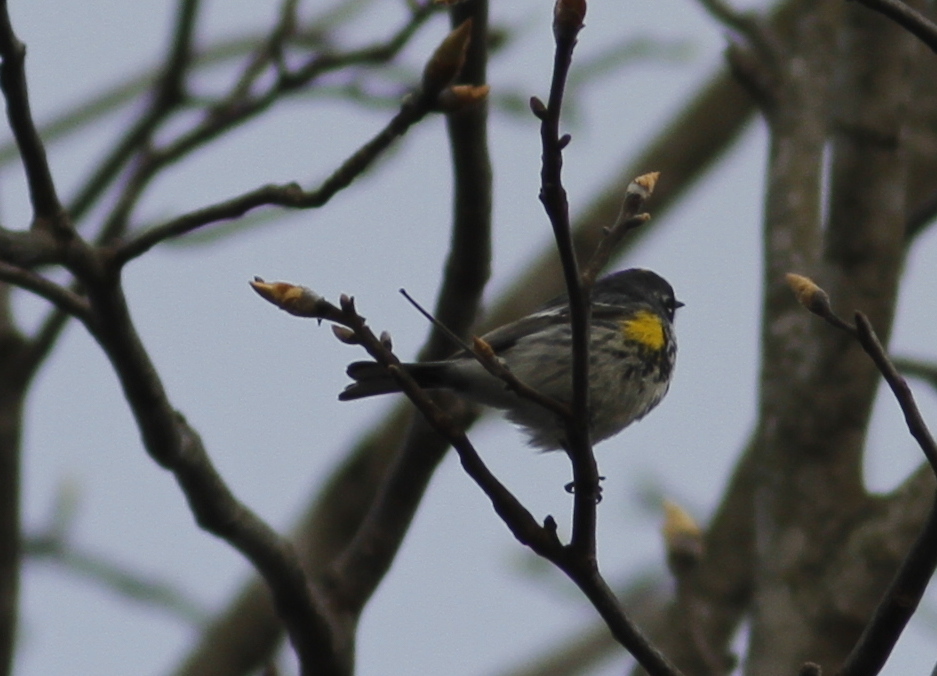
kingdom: Animalia
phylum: Chordata
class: Aves
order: Passeriformes
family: Parulidae
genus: Setophaga
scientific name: Setophaga coronata
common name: Myrtle warbler
